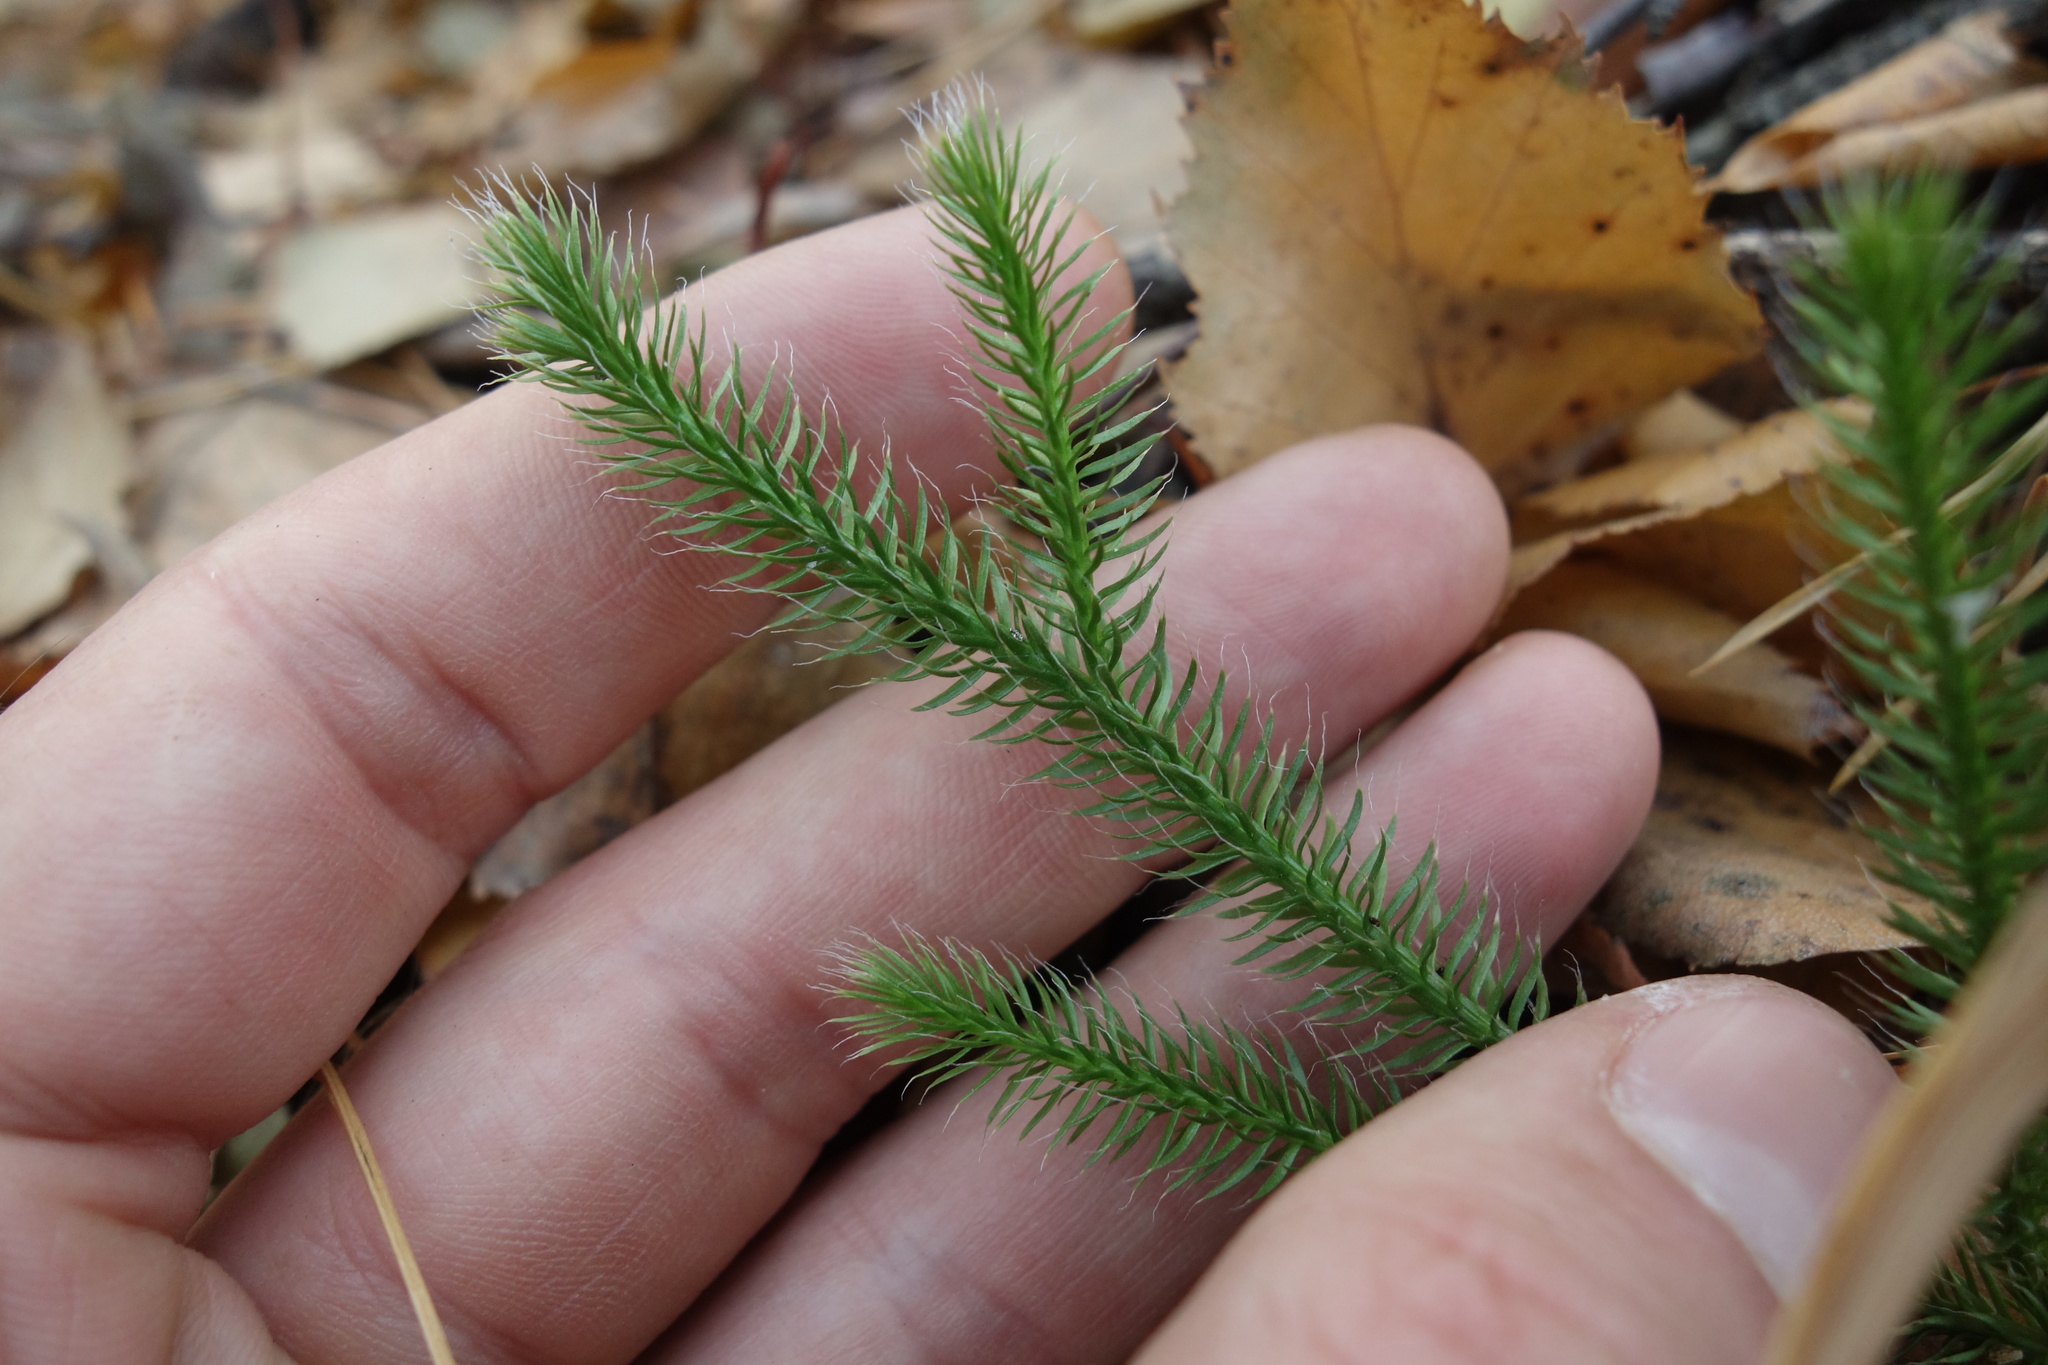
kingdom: Plantae
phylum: Tracheophyta
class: Lycopodiopsida
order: Lycopodiales
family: Lycopodiaceae
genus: Lycopodium
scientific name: Lycopodium clavatum
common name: Stag's-horn clubmoss
